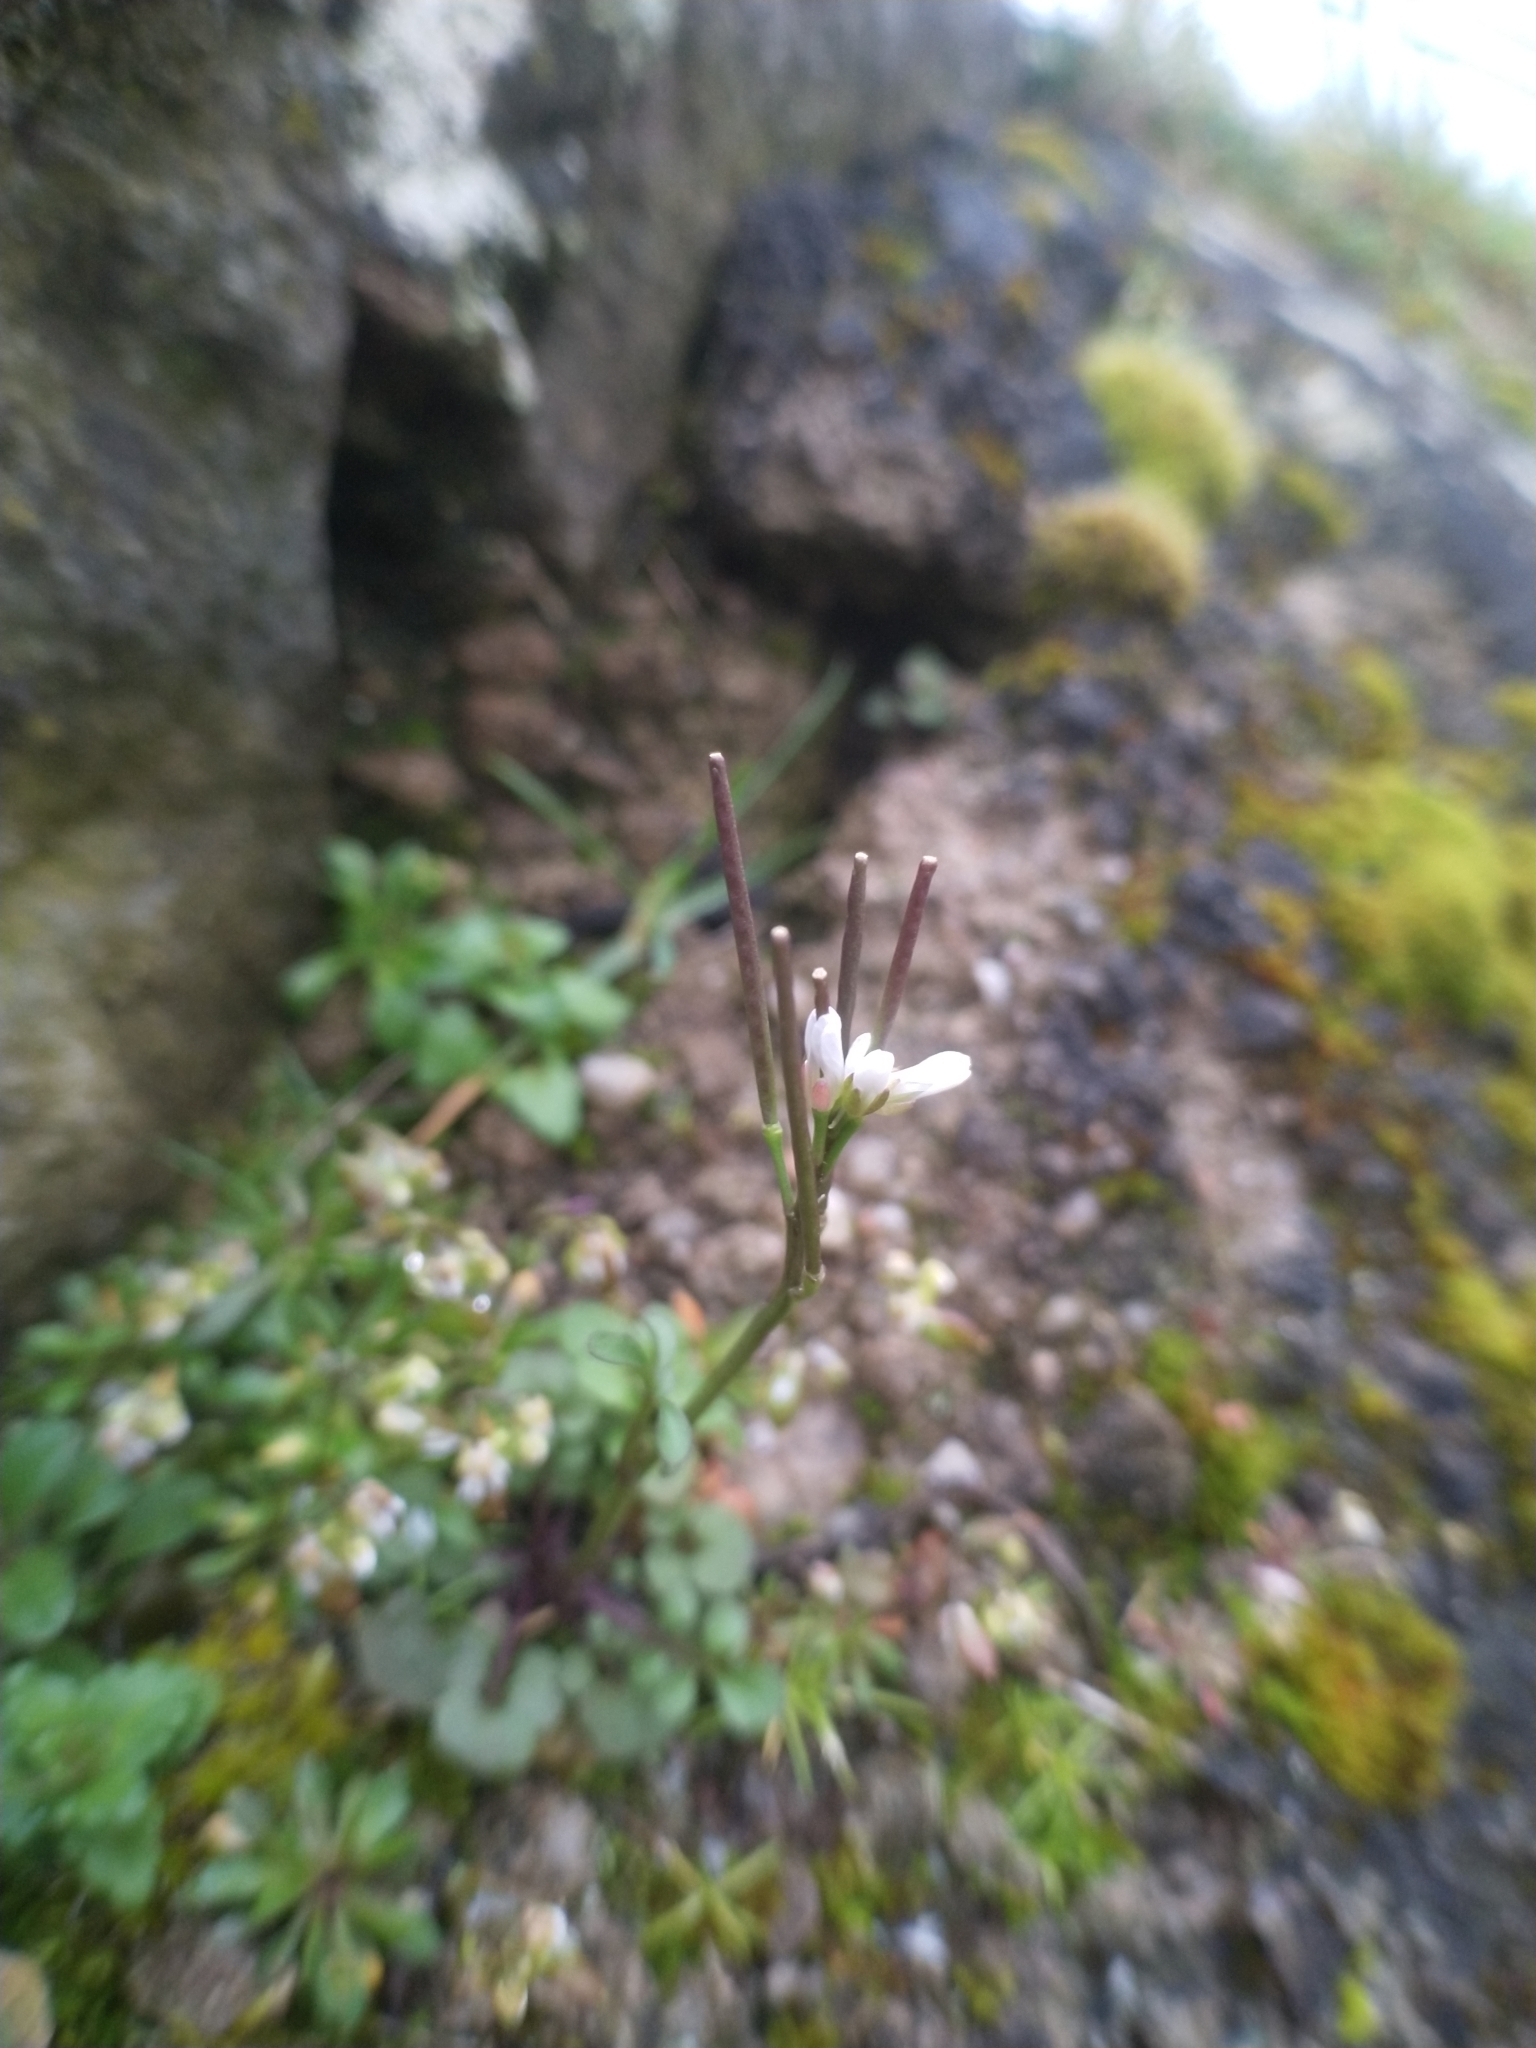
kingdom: Plantae
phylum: Tracheophyta
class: Magnoliopsida
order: Brassicales
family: Brassicaceae
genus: Cardamine
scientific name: Cardamine hirsuta
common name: Hairy bittercress
